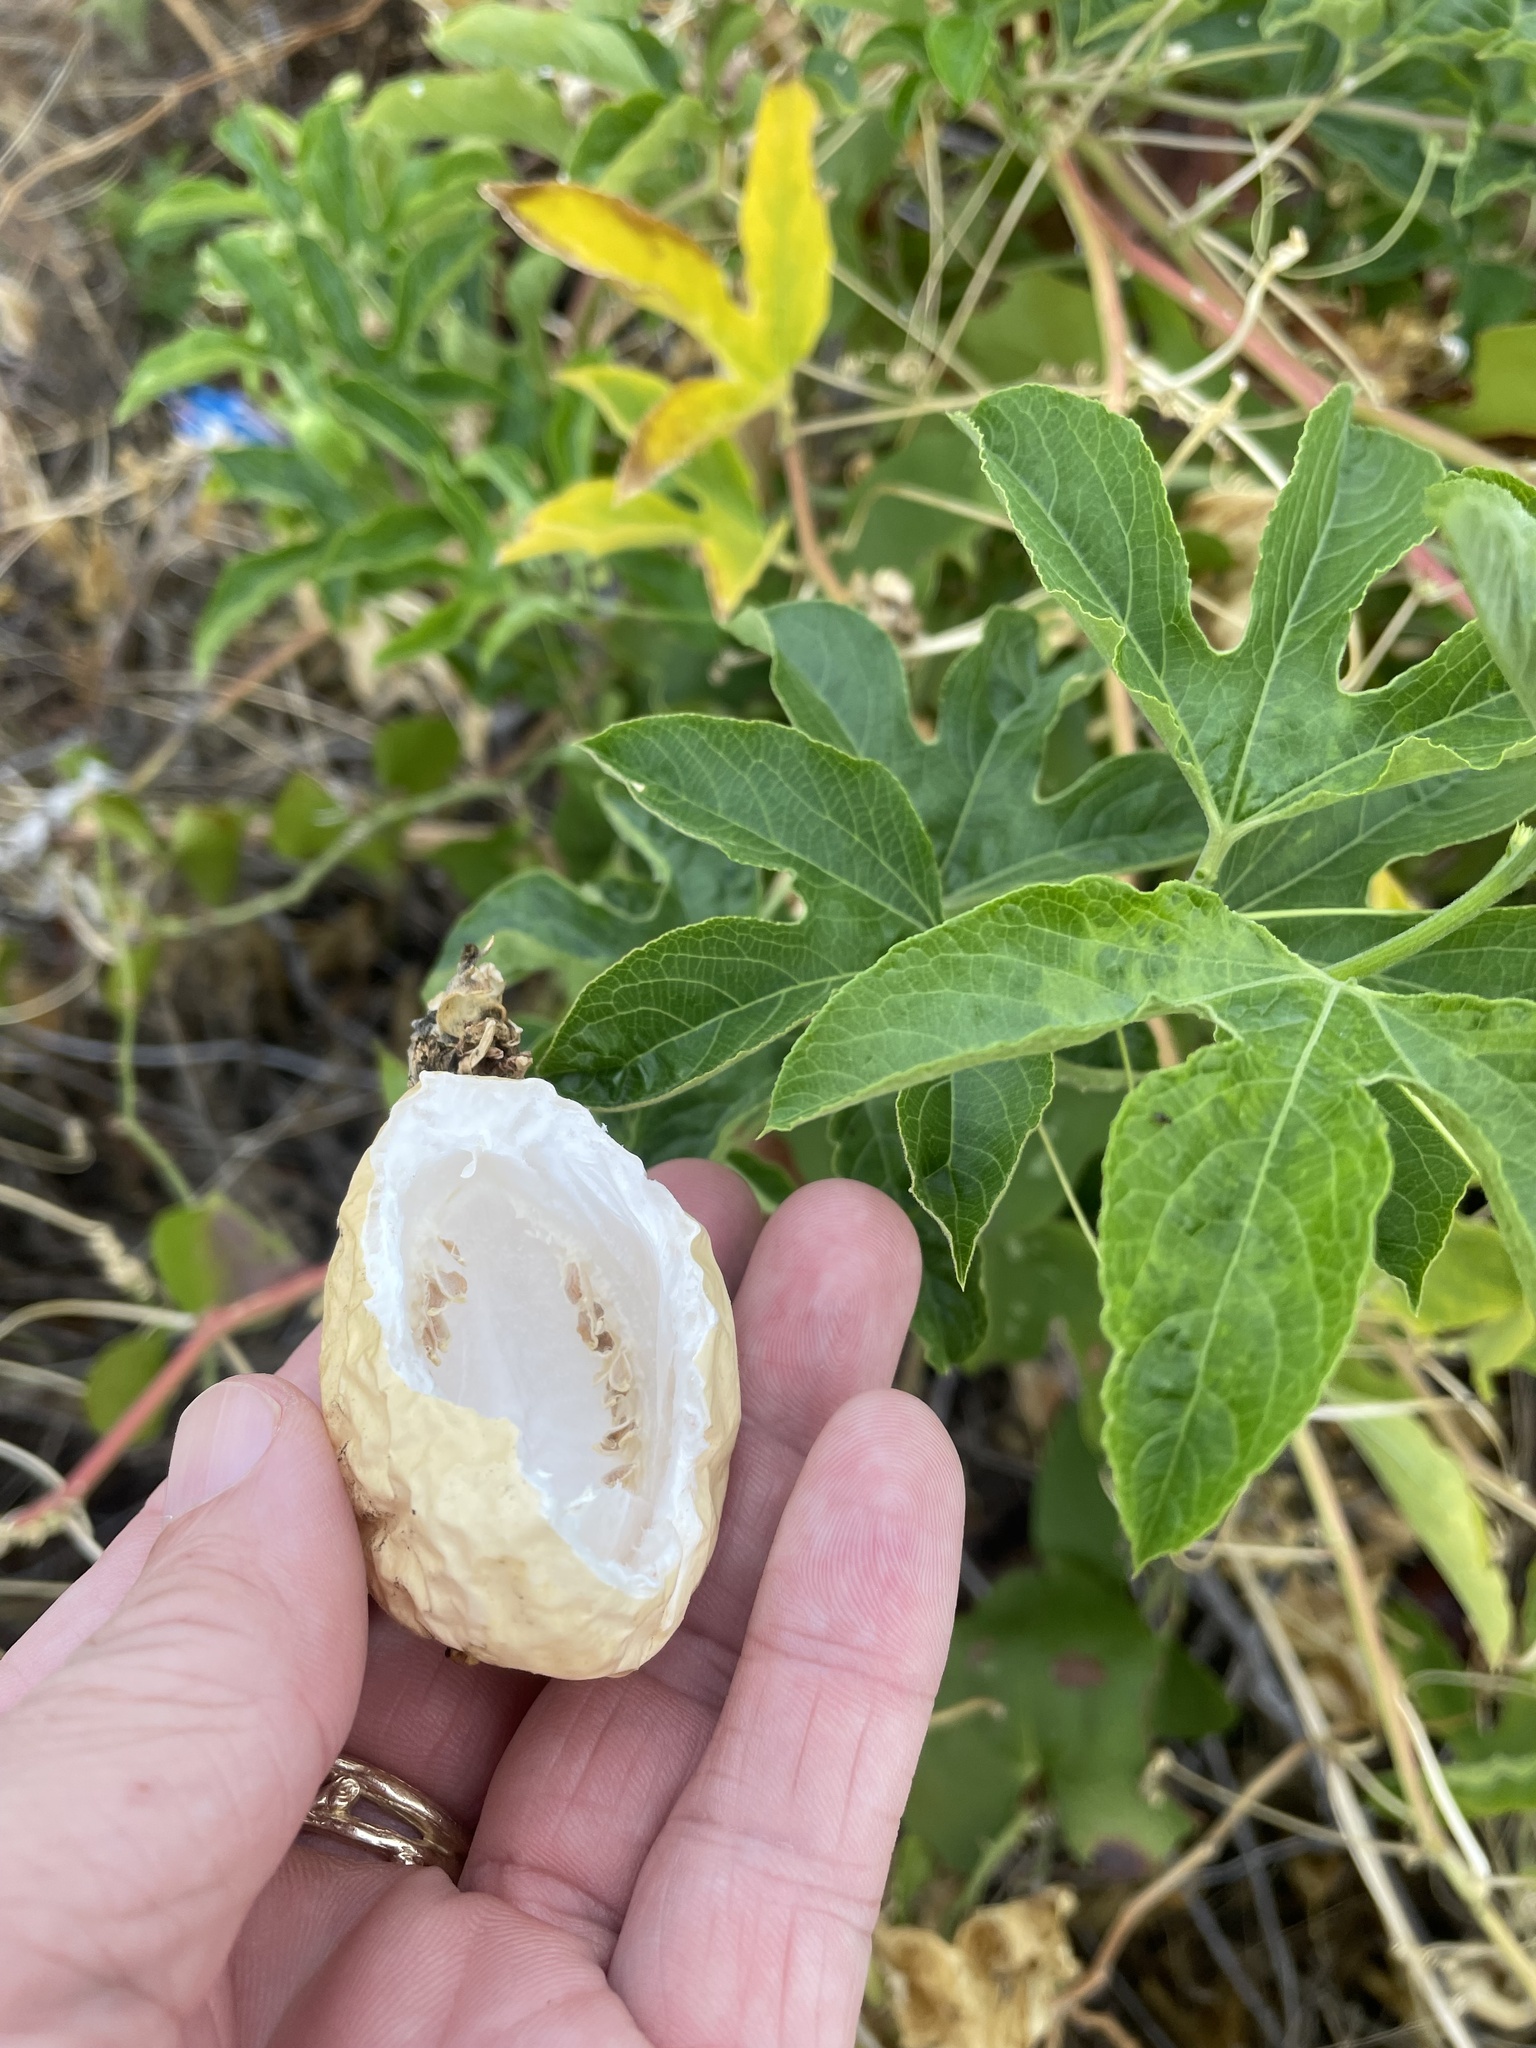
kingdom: Plantae
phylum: Tracheophyta
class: Magnoliopsida
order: Malpighiales
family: Passifloraceae
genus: Passiflora
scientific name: Passiflora incarnata
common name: Apricot-vine
